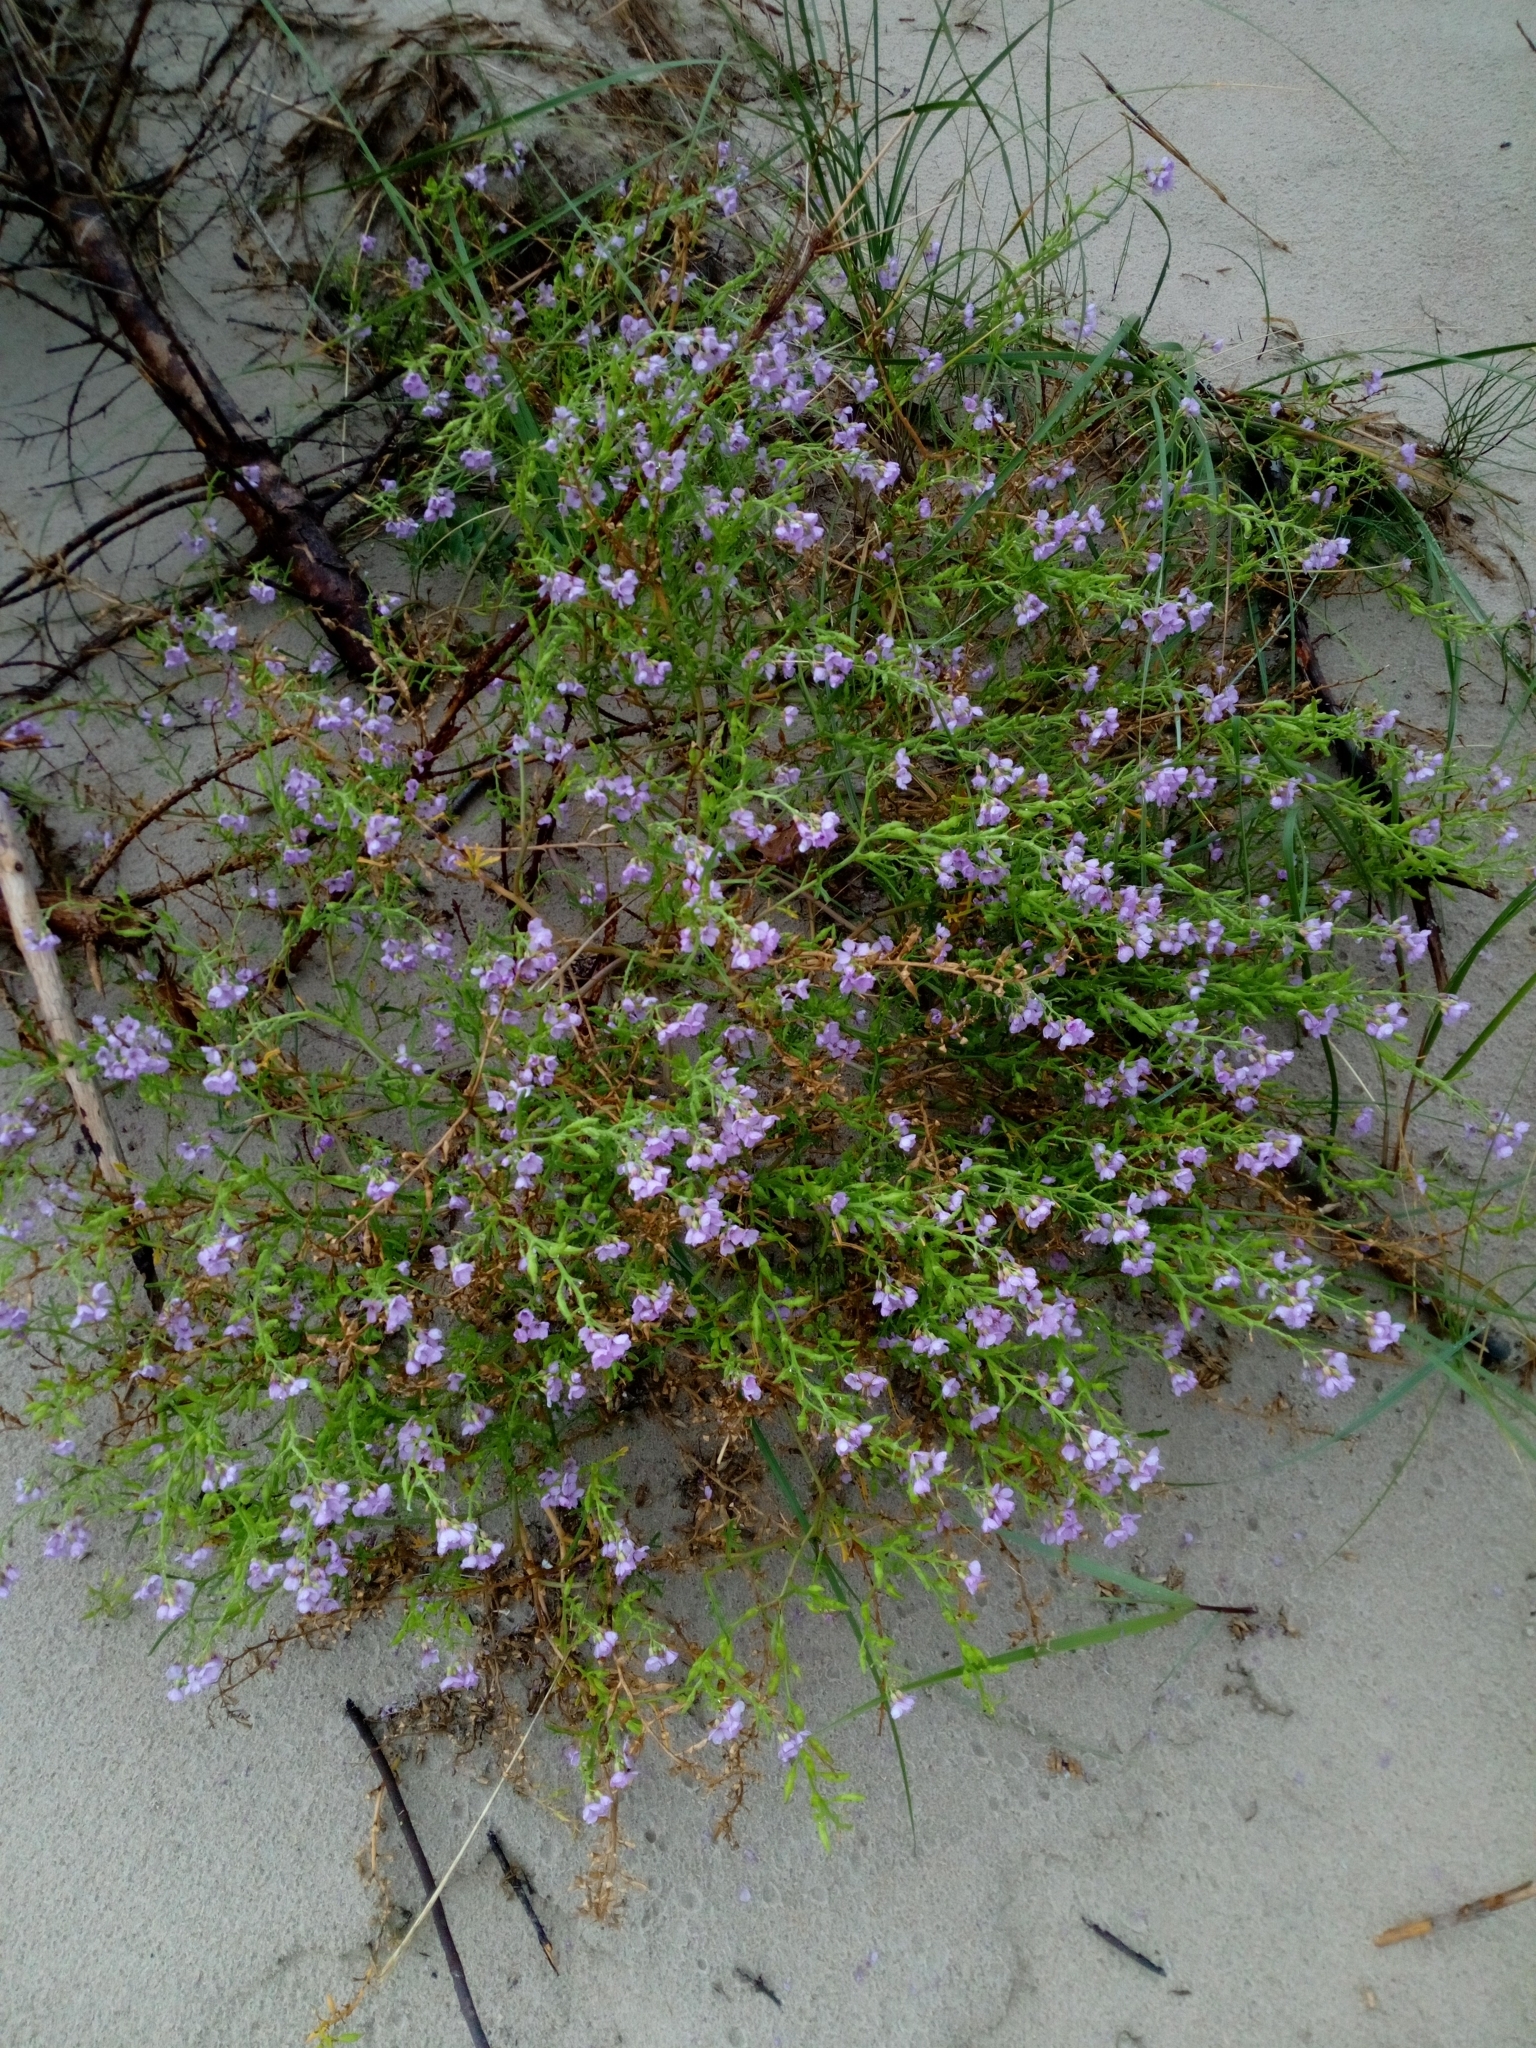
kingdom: Plantae
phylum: Tracheophyta
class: Magnoliopsida
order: Brassicales
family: Brassicaceae
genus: Cakile
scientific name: Cakile maritima
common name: Sea rocket
